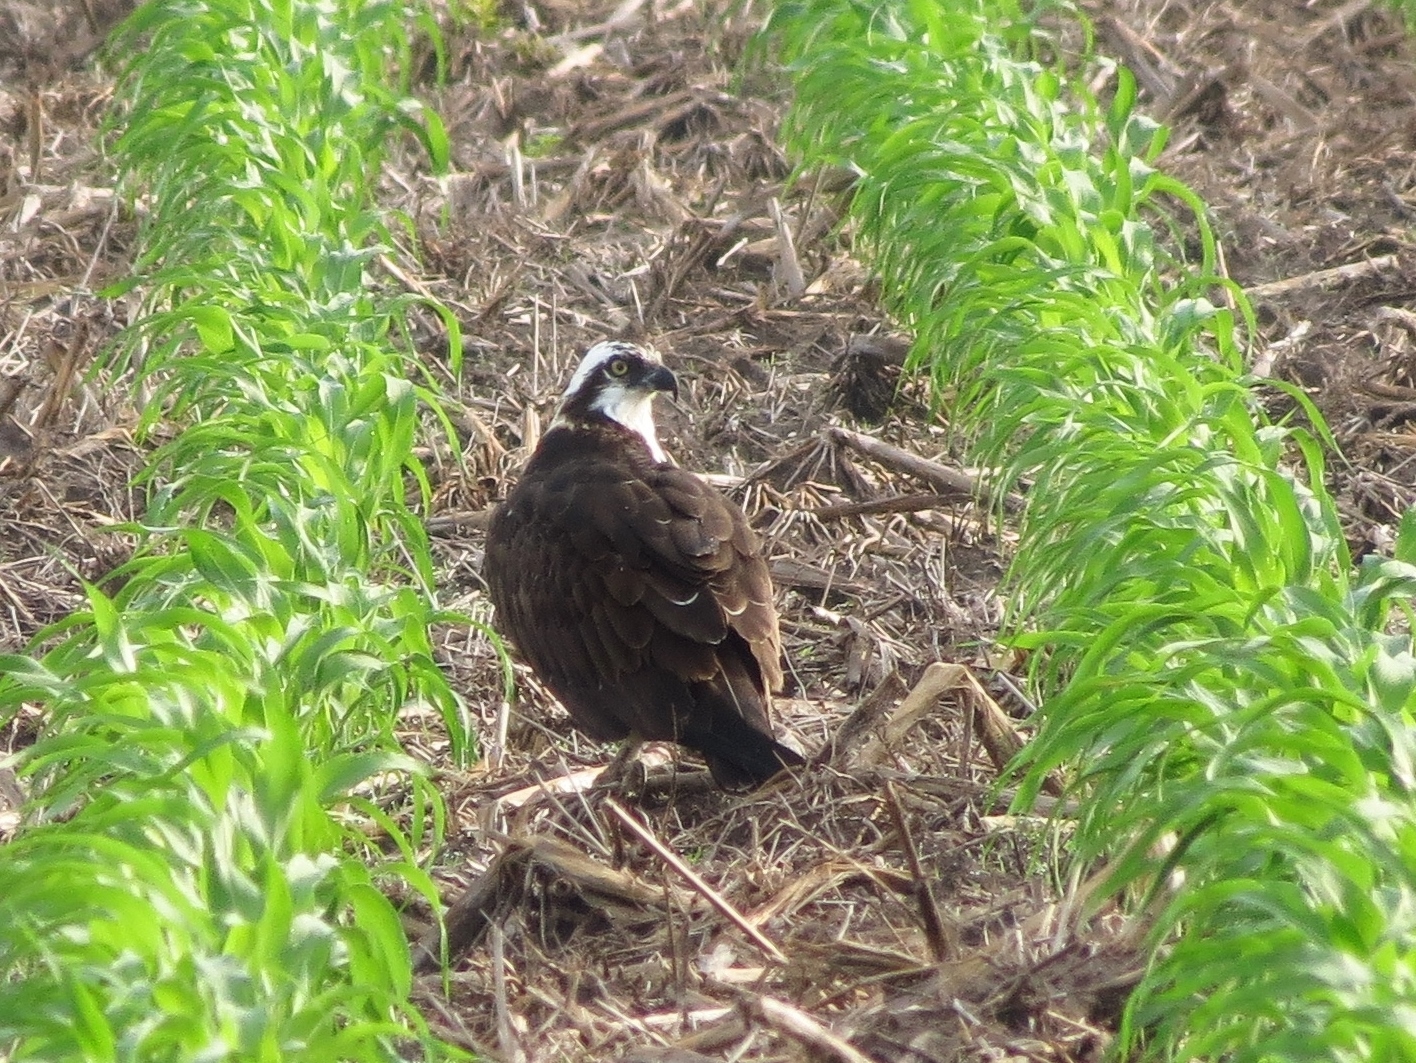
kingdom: Animalia
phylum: Chordata
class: Aves
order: Accipitriformes
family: Pandionidae
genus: Pandion
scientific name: Pandion haliaetus
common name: Osprey
